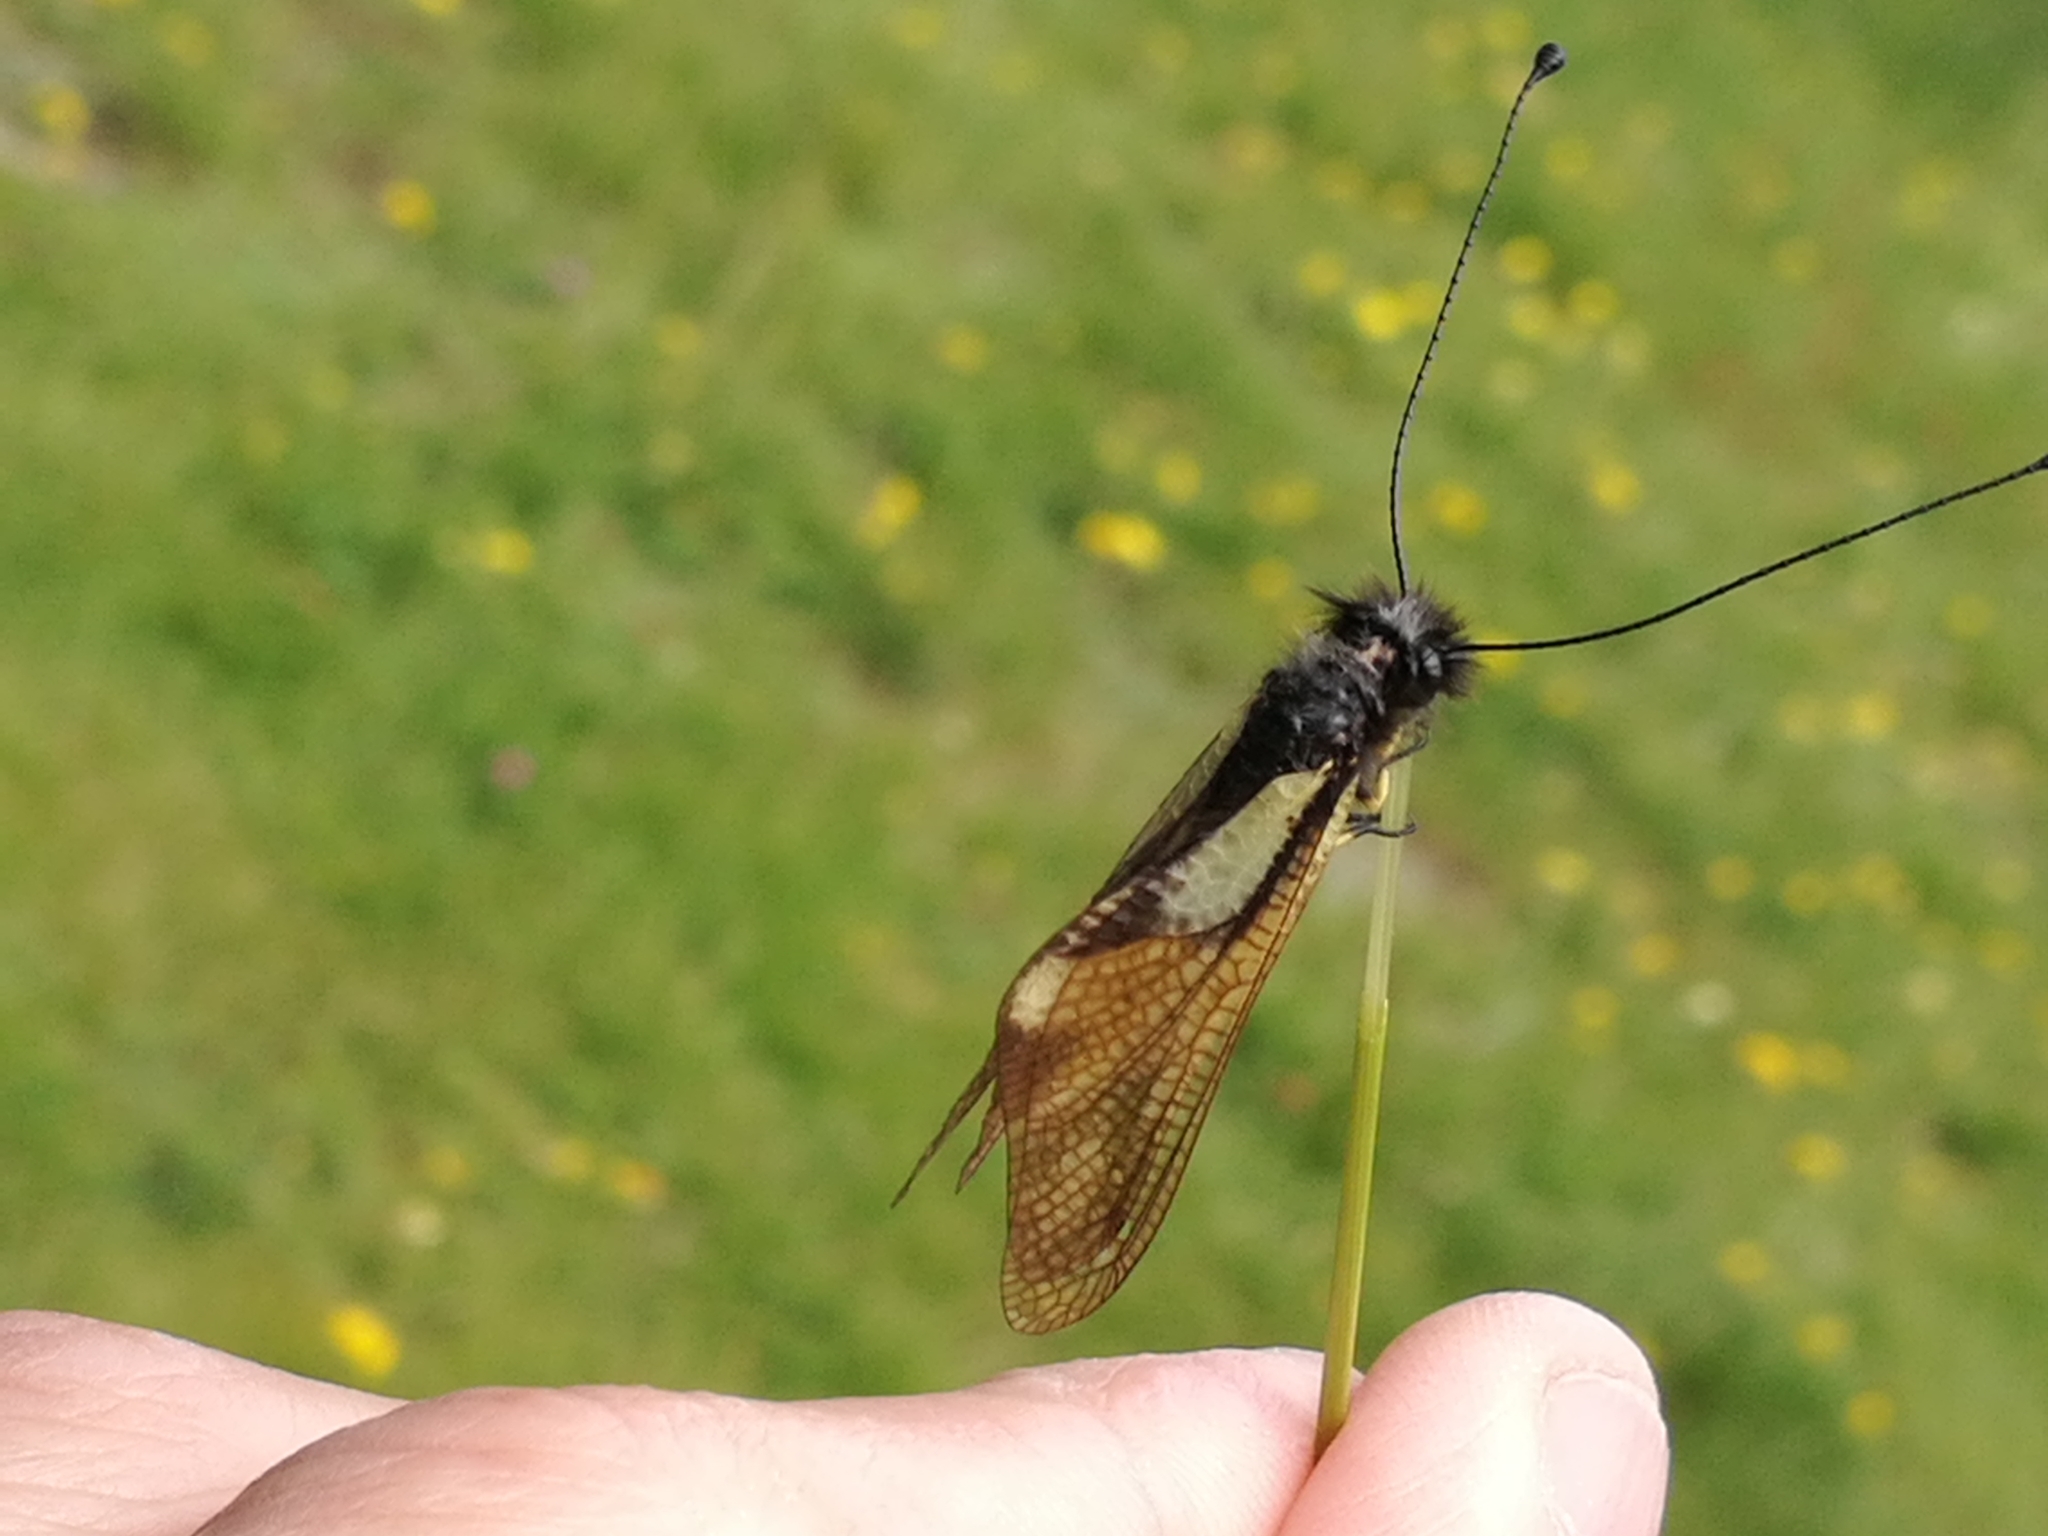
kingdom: Animalia
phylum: Arthropoda
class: Insecta
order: Neuroptera
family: Ascalaphidae
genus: Libelloides
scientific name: Libelloides coccajus
